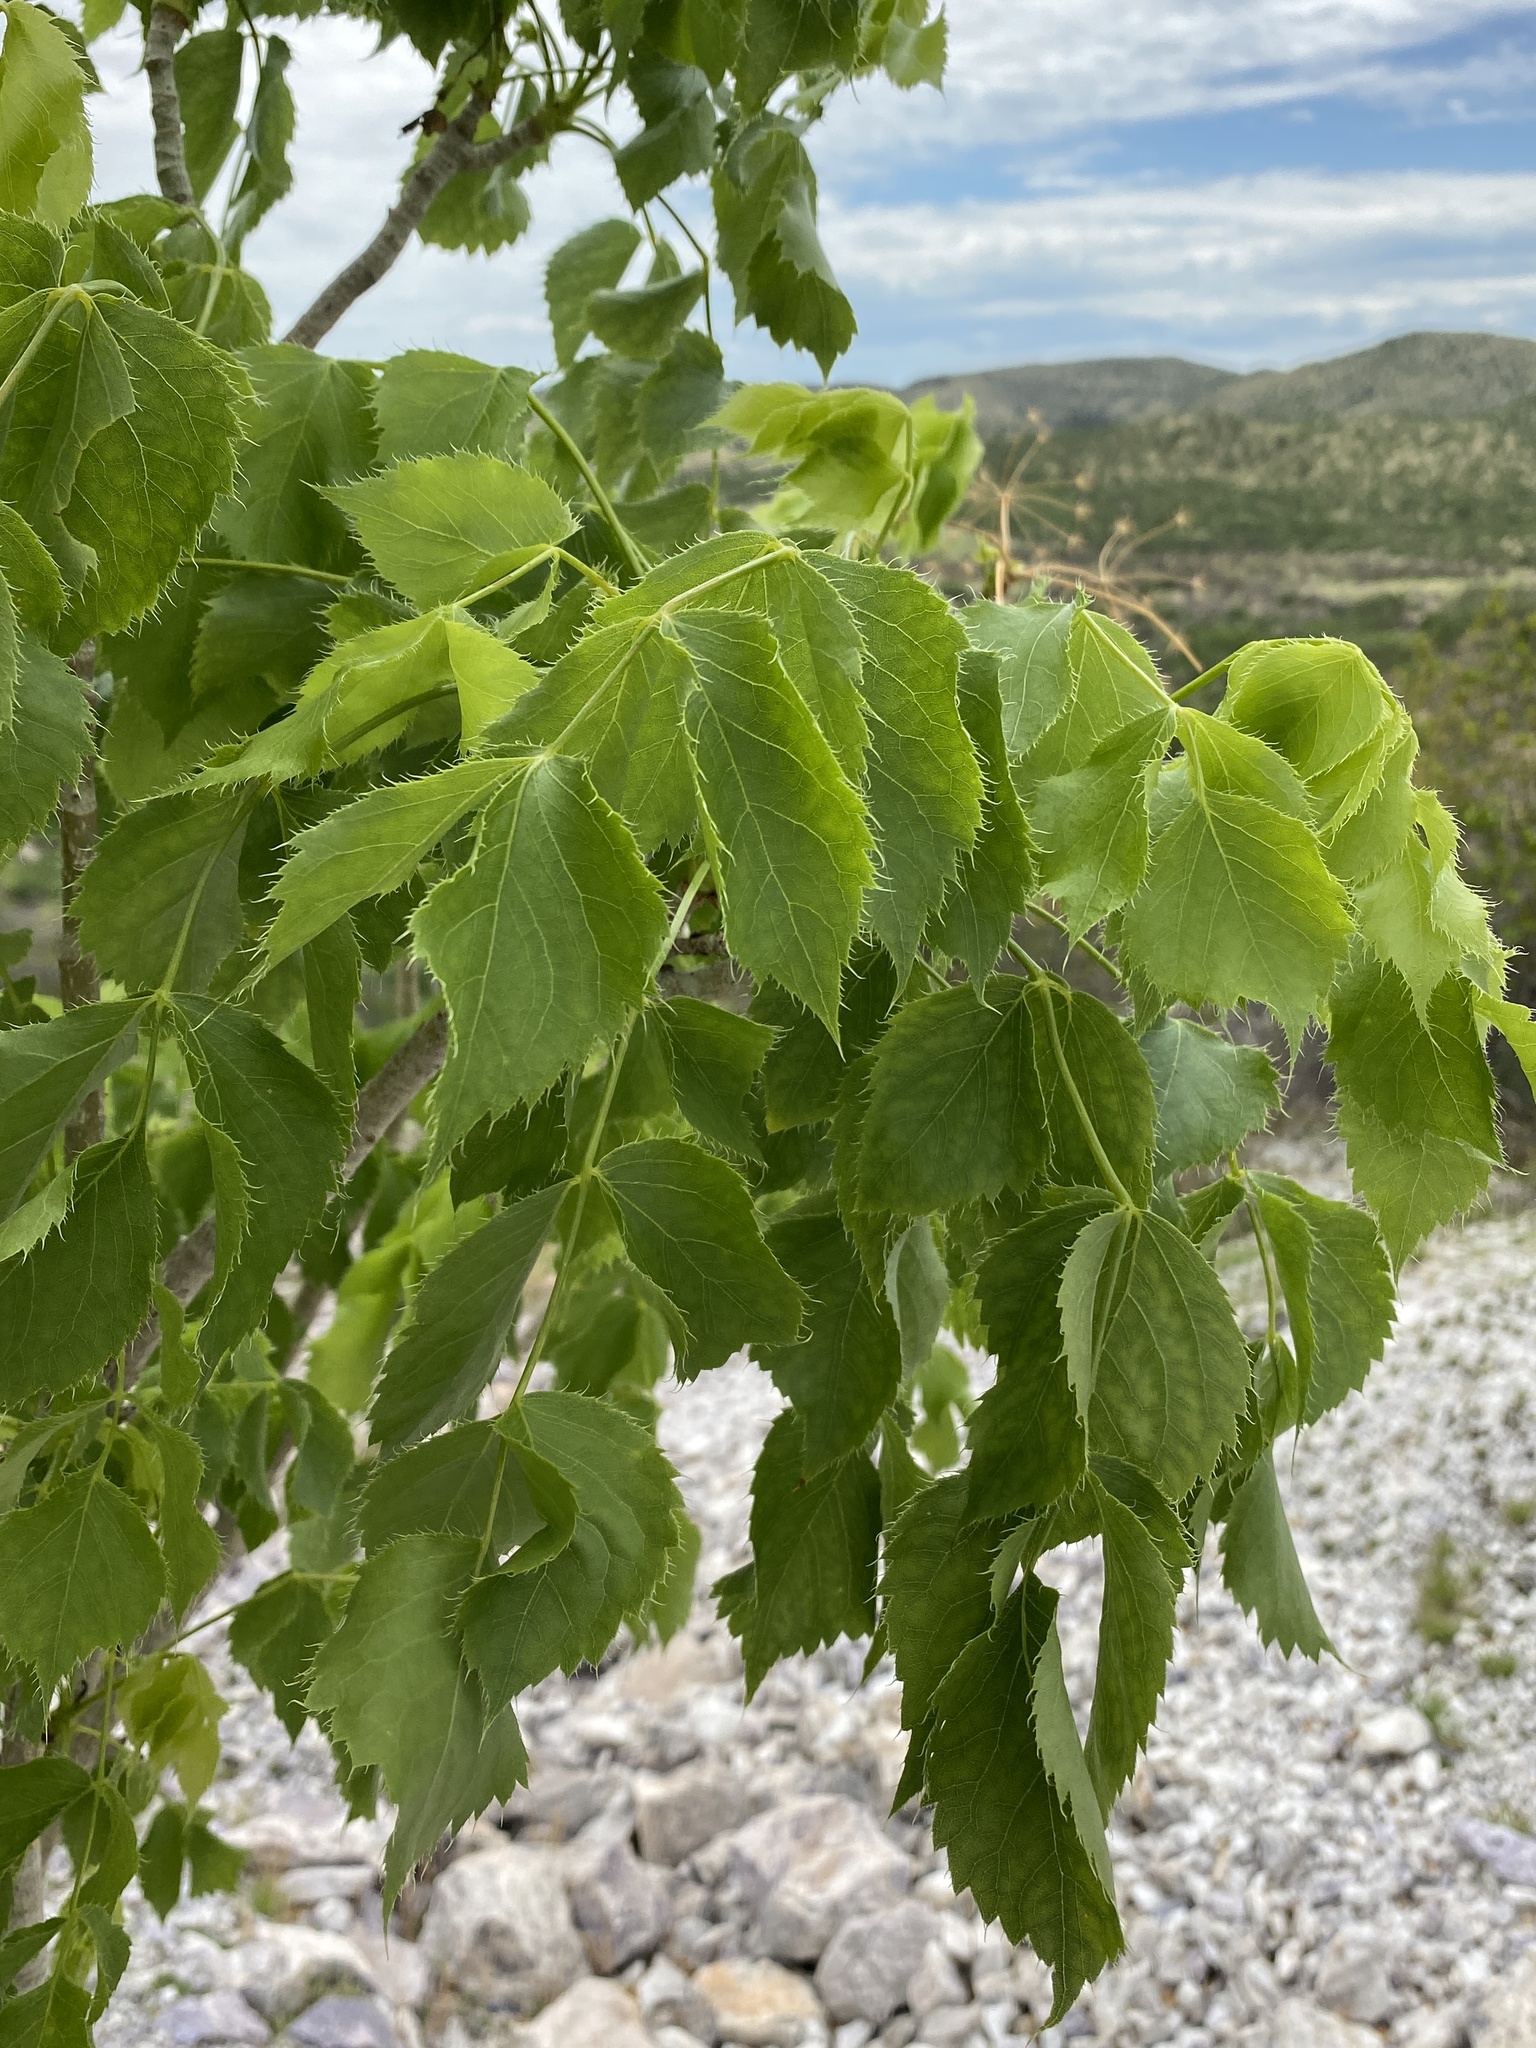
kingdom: Plantae
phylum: Tracheophyta
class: Magnoliopsida
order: Apiales
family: Apiaceae
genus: Steganotaenia
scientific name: Steganotaenia araliacea
